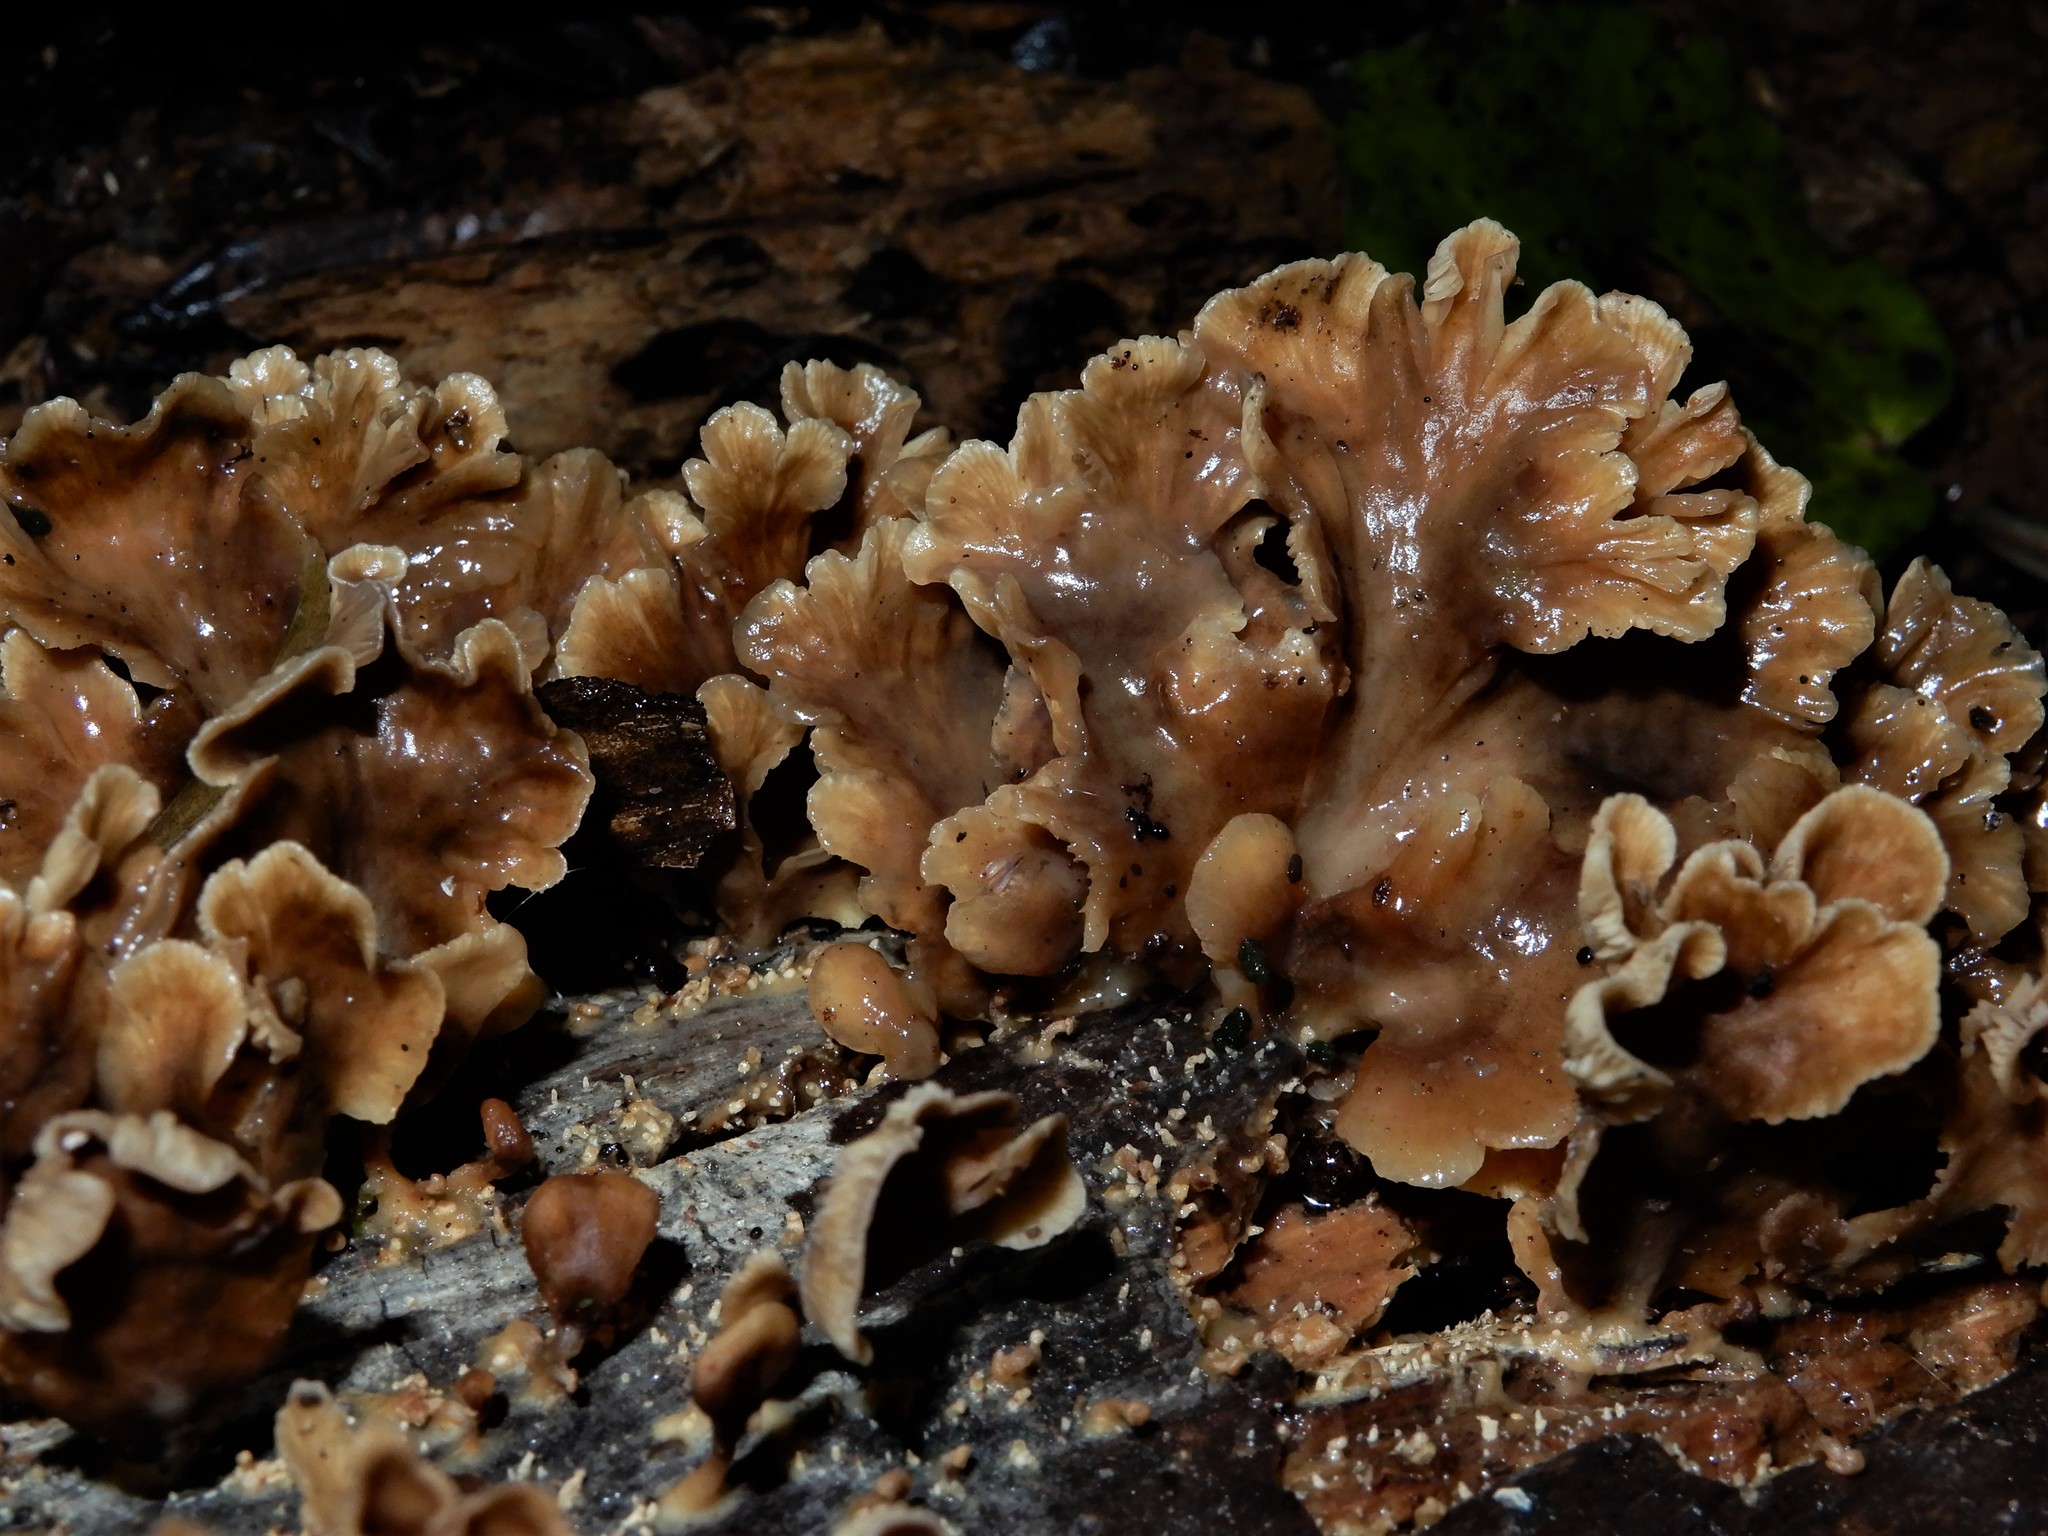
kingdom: Fungi
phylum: Basidiomycota
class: Agaricomycetes
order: Agaricales
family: Tricholomataceae
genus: Rhizocybe
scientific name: Rhizocybe
